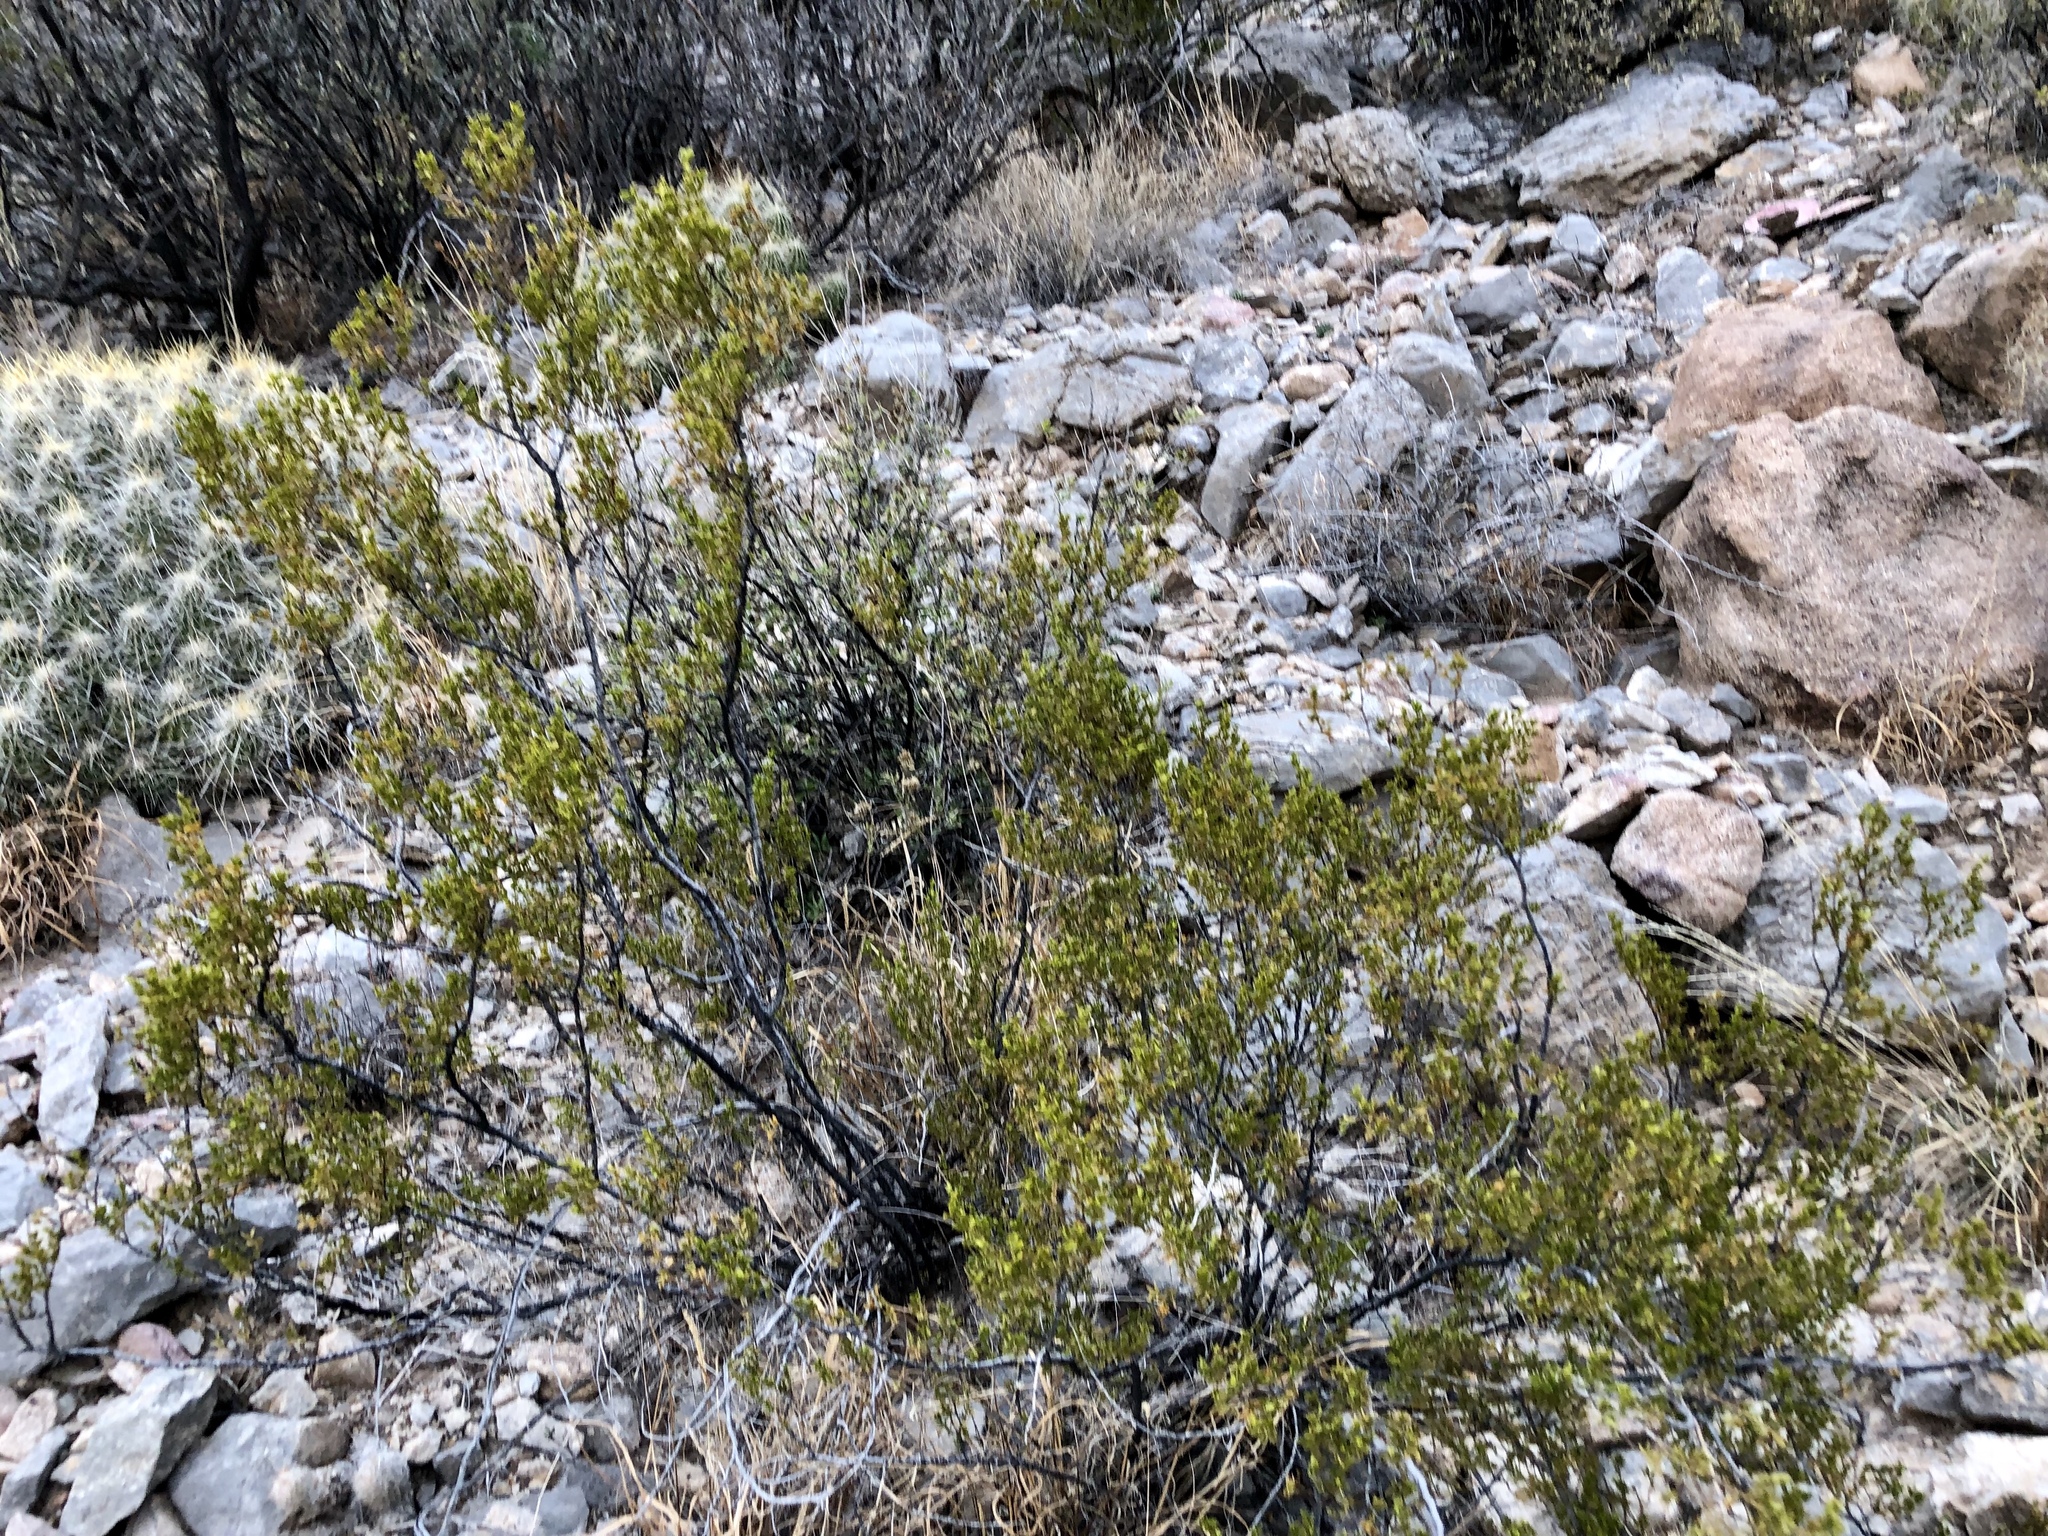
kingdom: Plantae
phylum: Tracheophyta
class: Magnoliopsida
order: Zygophyllales
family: Zygophyllaceae
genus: Larrea
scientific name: Larrea tridentata
